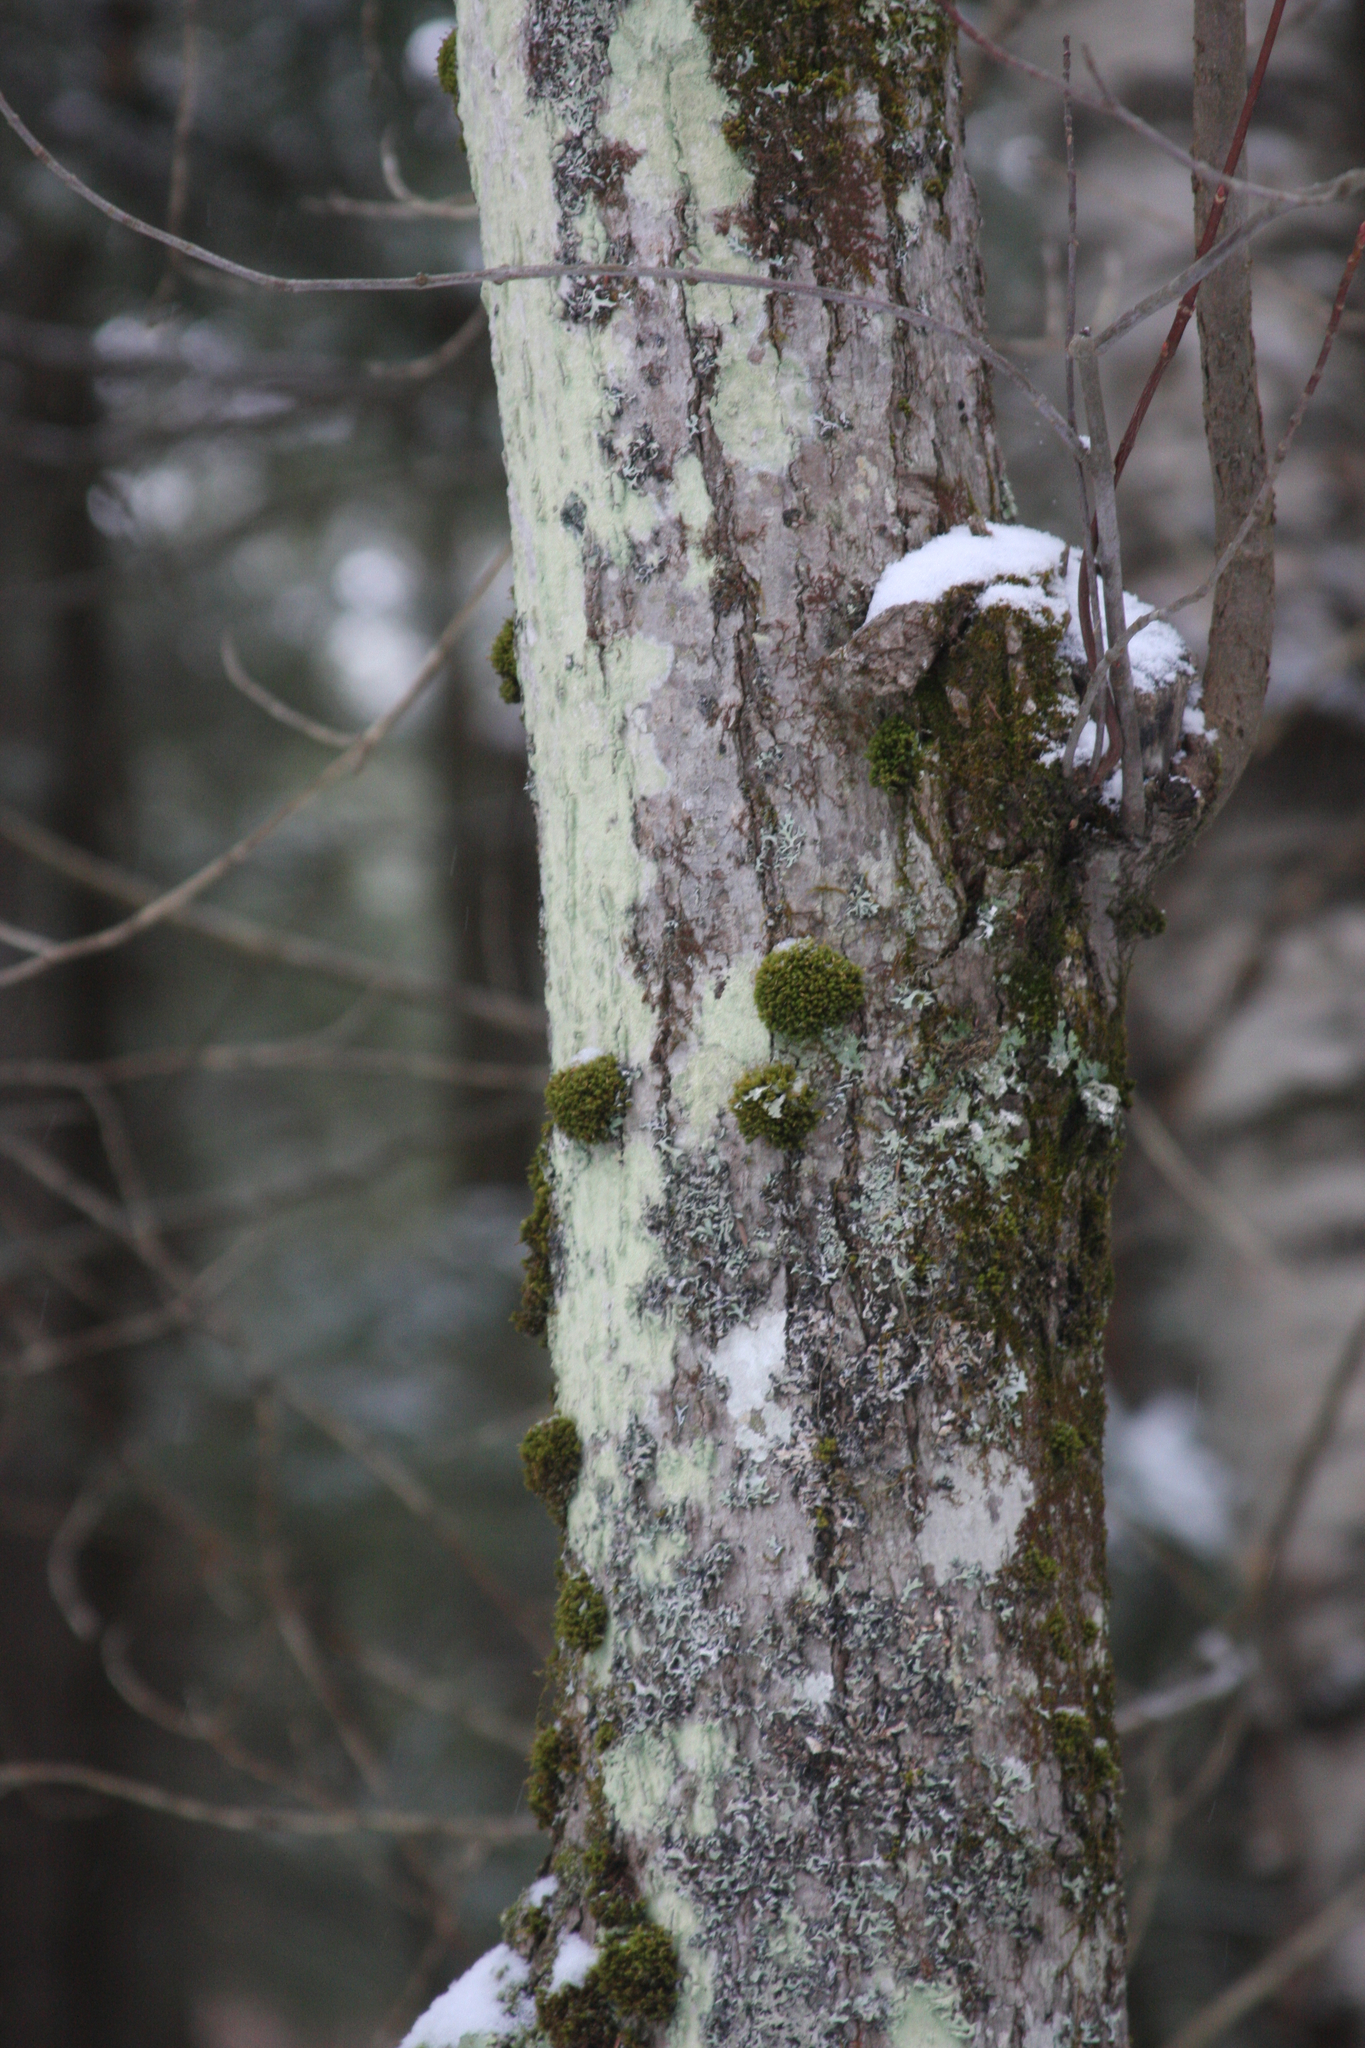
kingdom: Plantae
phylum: Bryophyta
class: Bryopsida
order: Orthotrichales
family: Orthotrichaceae
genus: Ulota
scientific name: Ulota crispa
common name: Crisped pincushion moss
